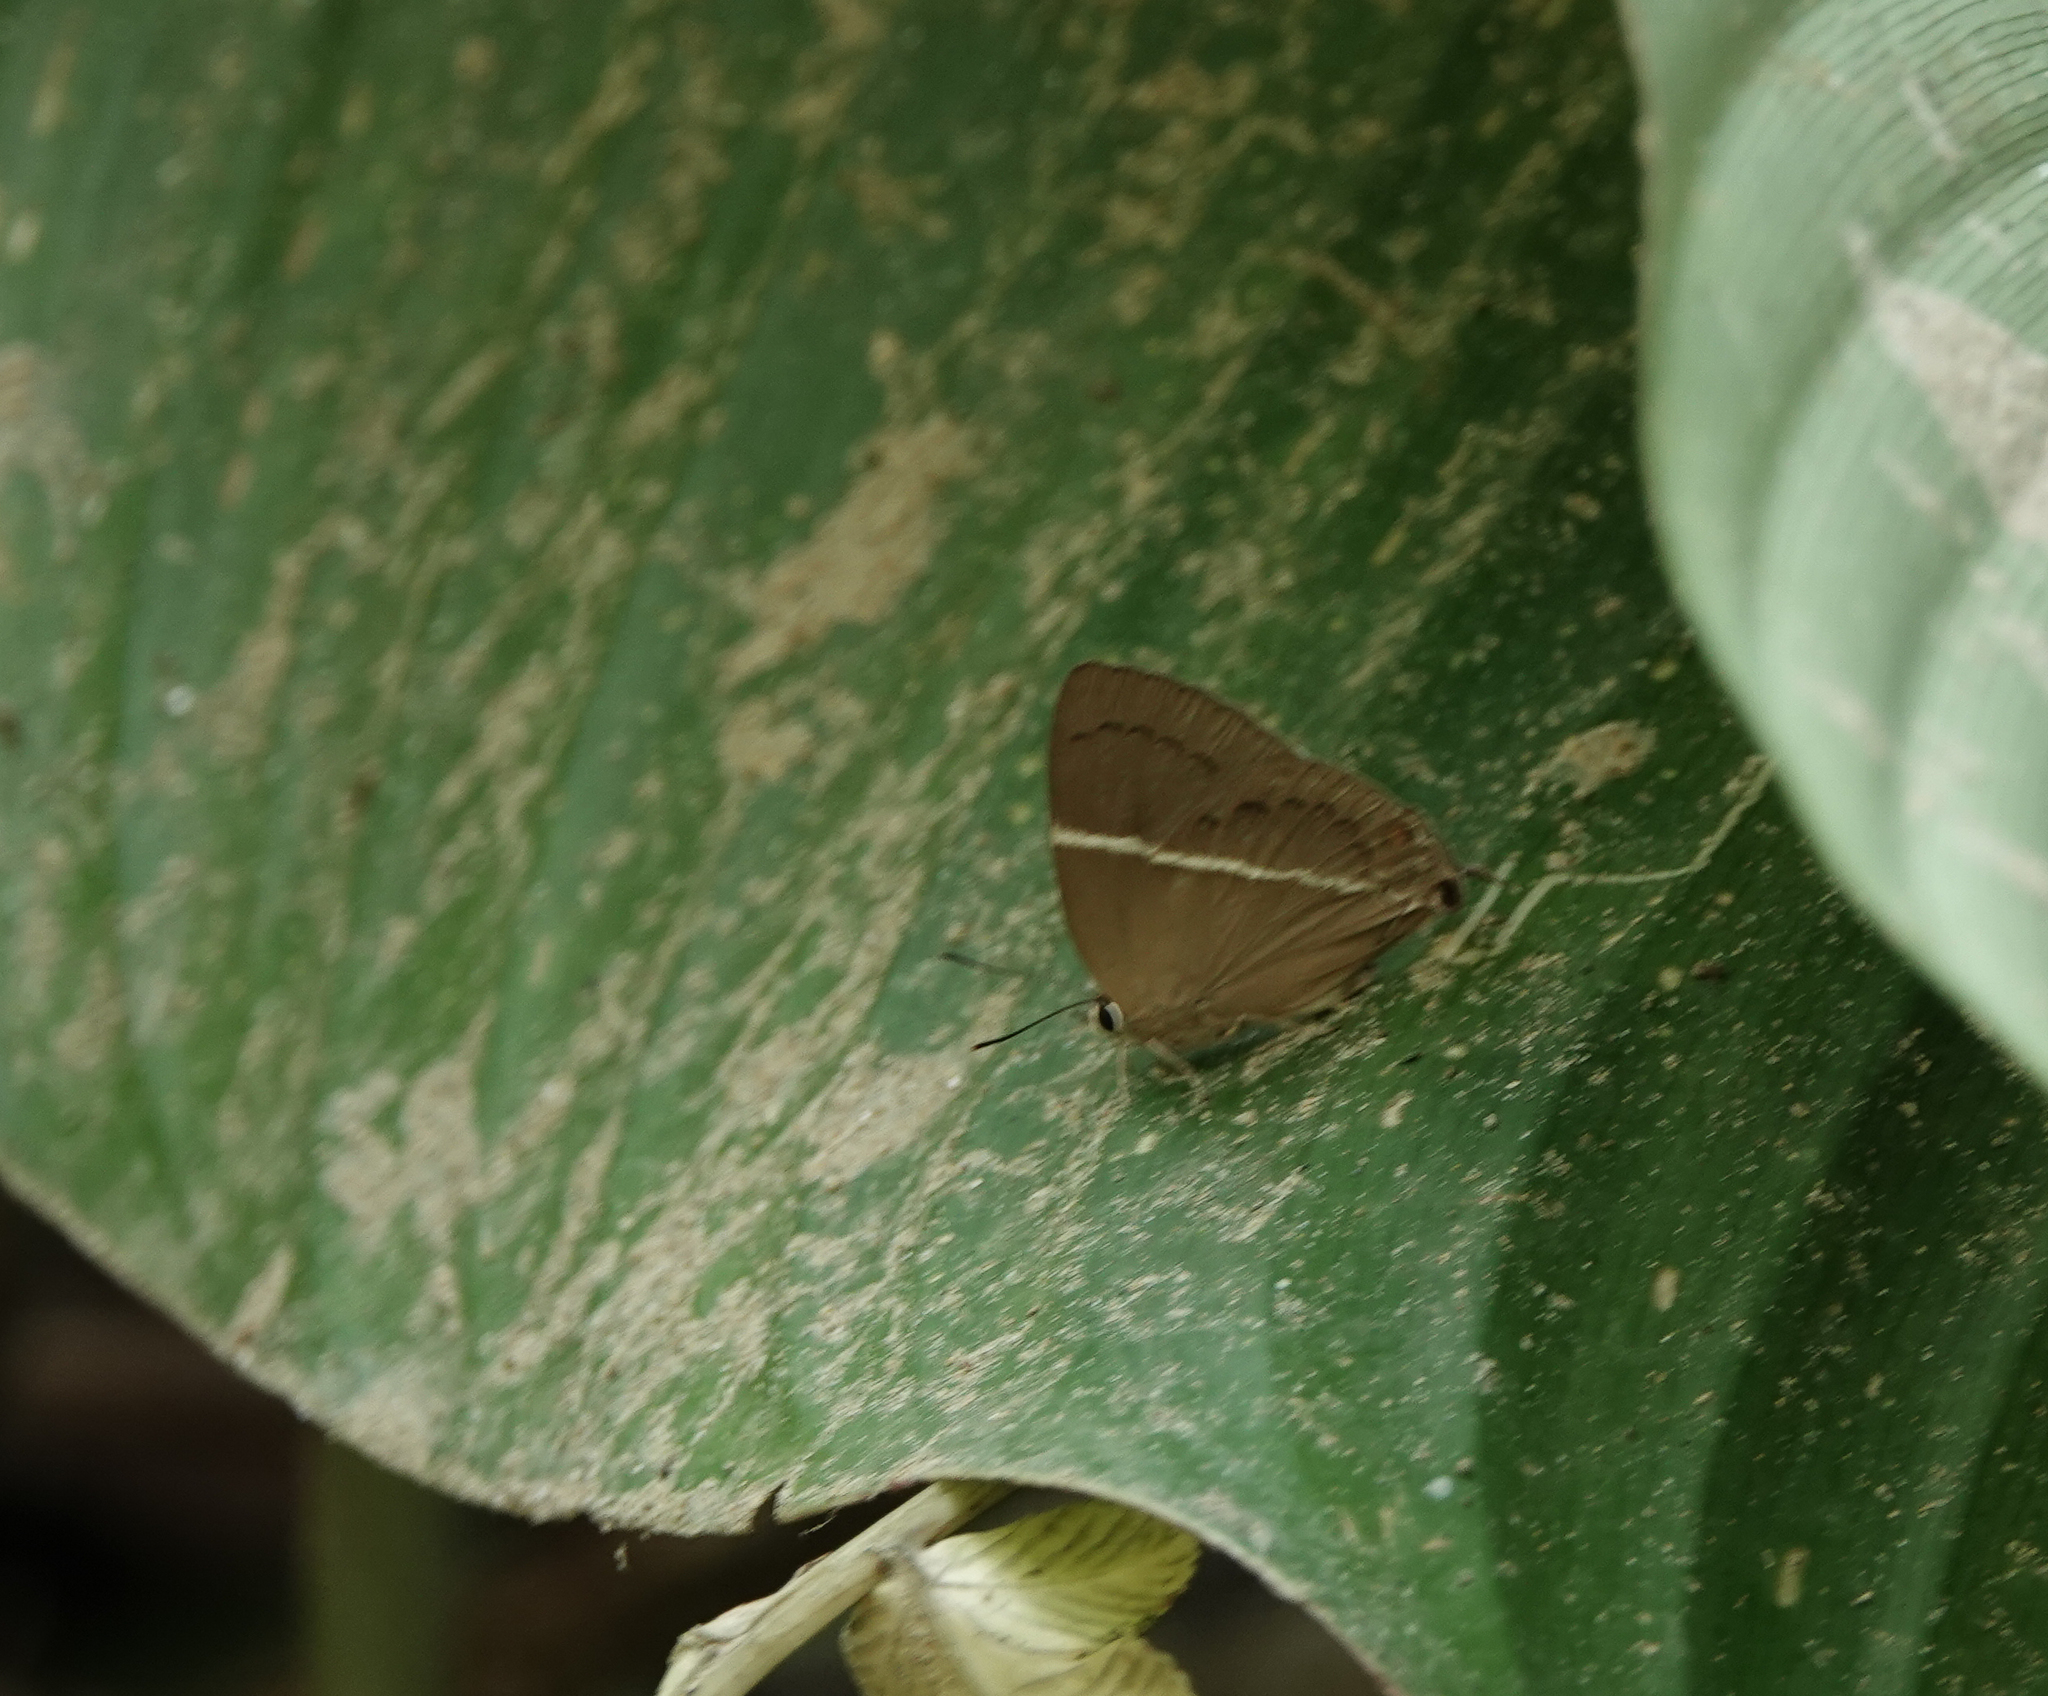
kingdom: Animalia
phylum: Arthropoda
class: Insecta
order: Lepidoptera
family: Lycaenidae
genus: Dacalana
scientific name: Dacalana pencilligera
